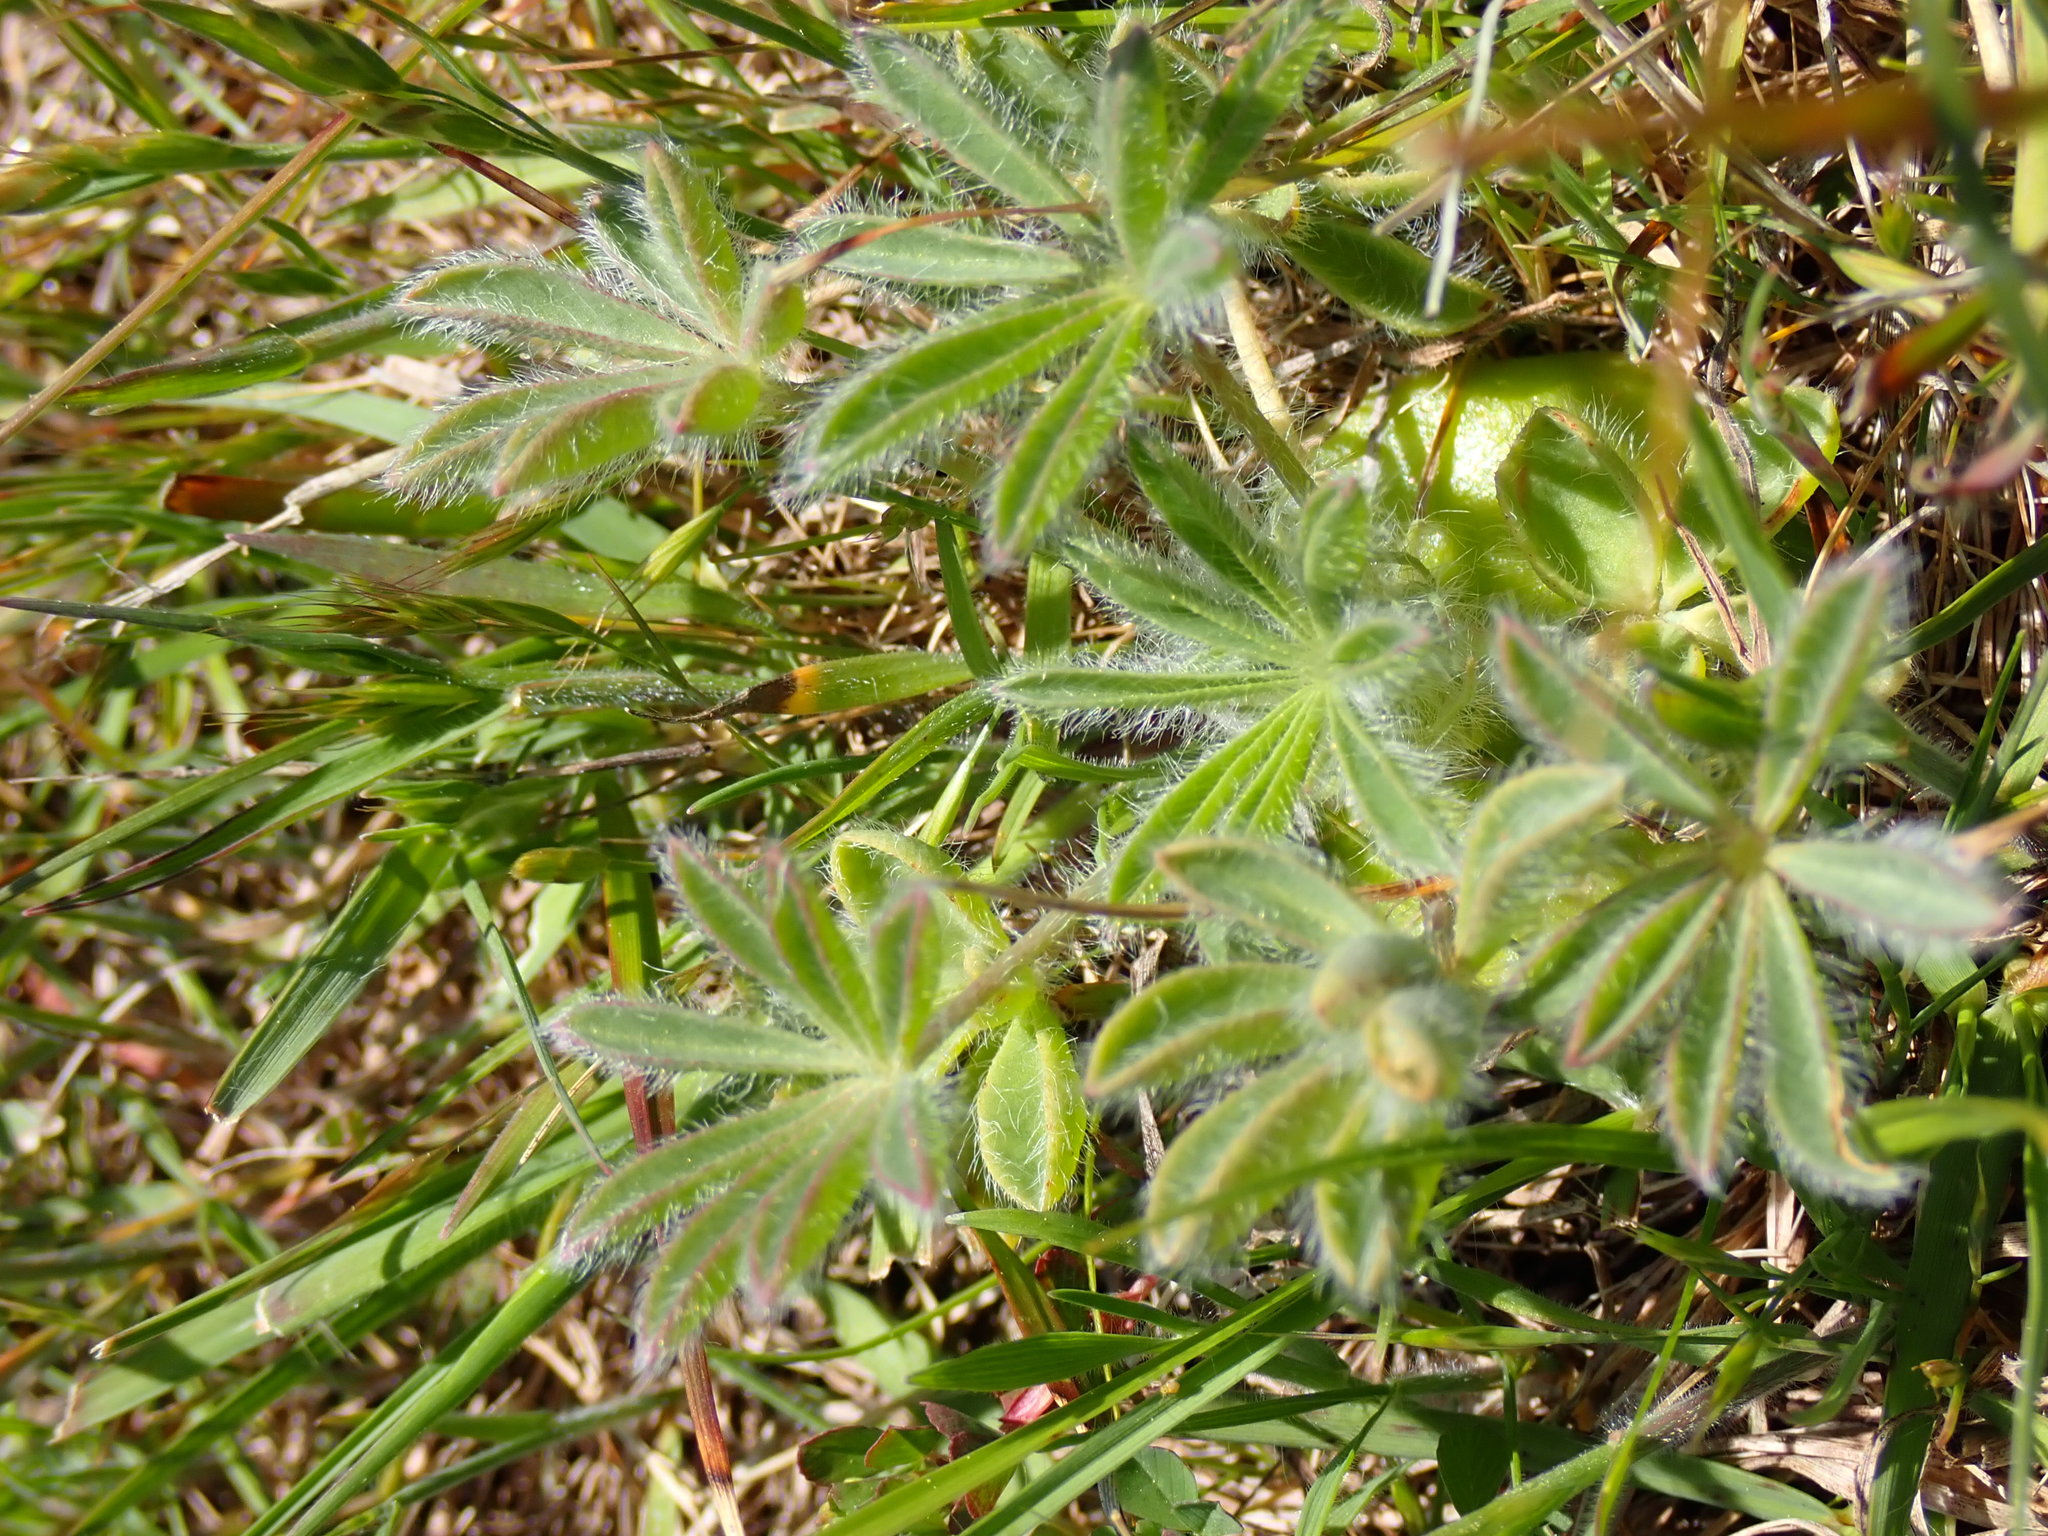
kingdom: Plantae
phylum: Tracheophyta
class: Magnoliopsida
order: Fabales
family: Fabaceae
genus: Lupinus
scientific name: Lupinus densiflorus
